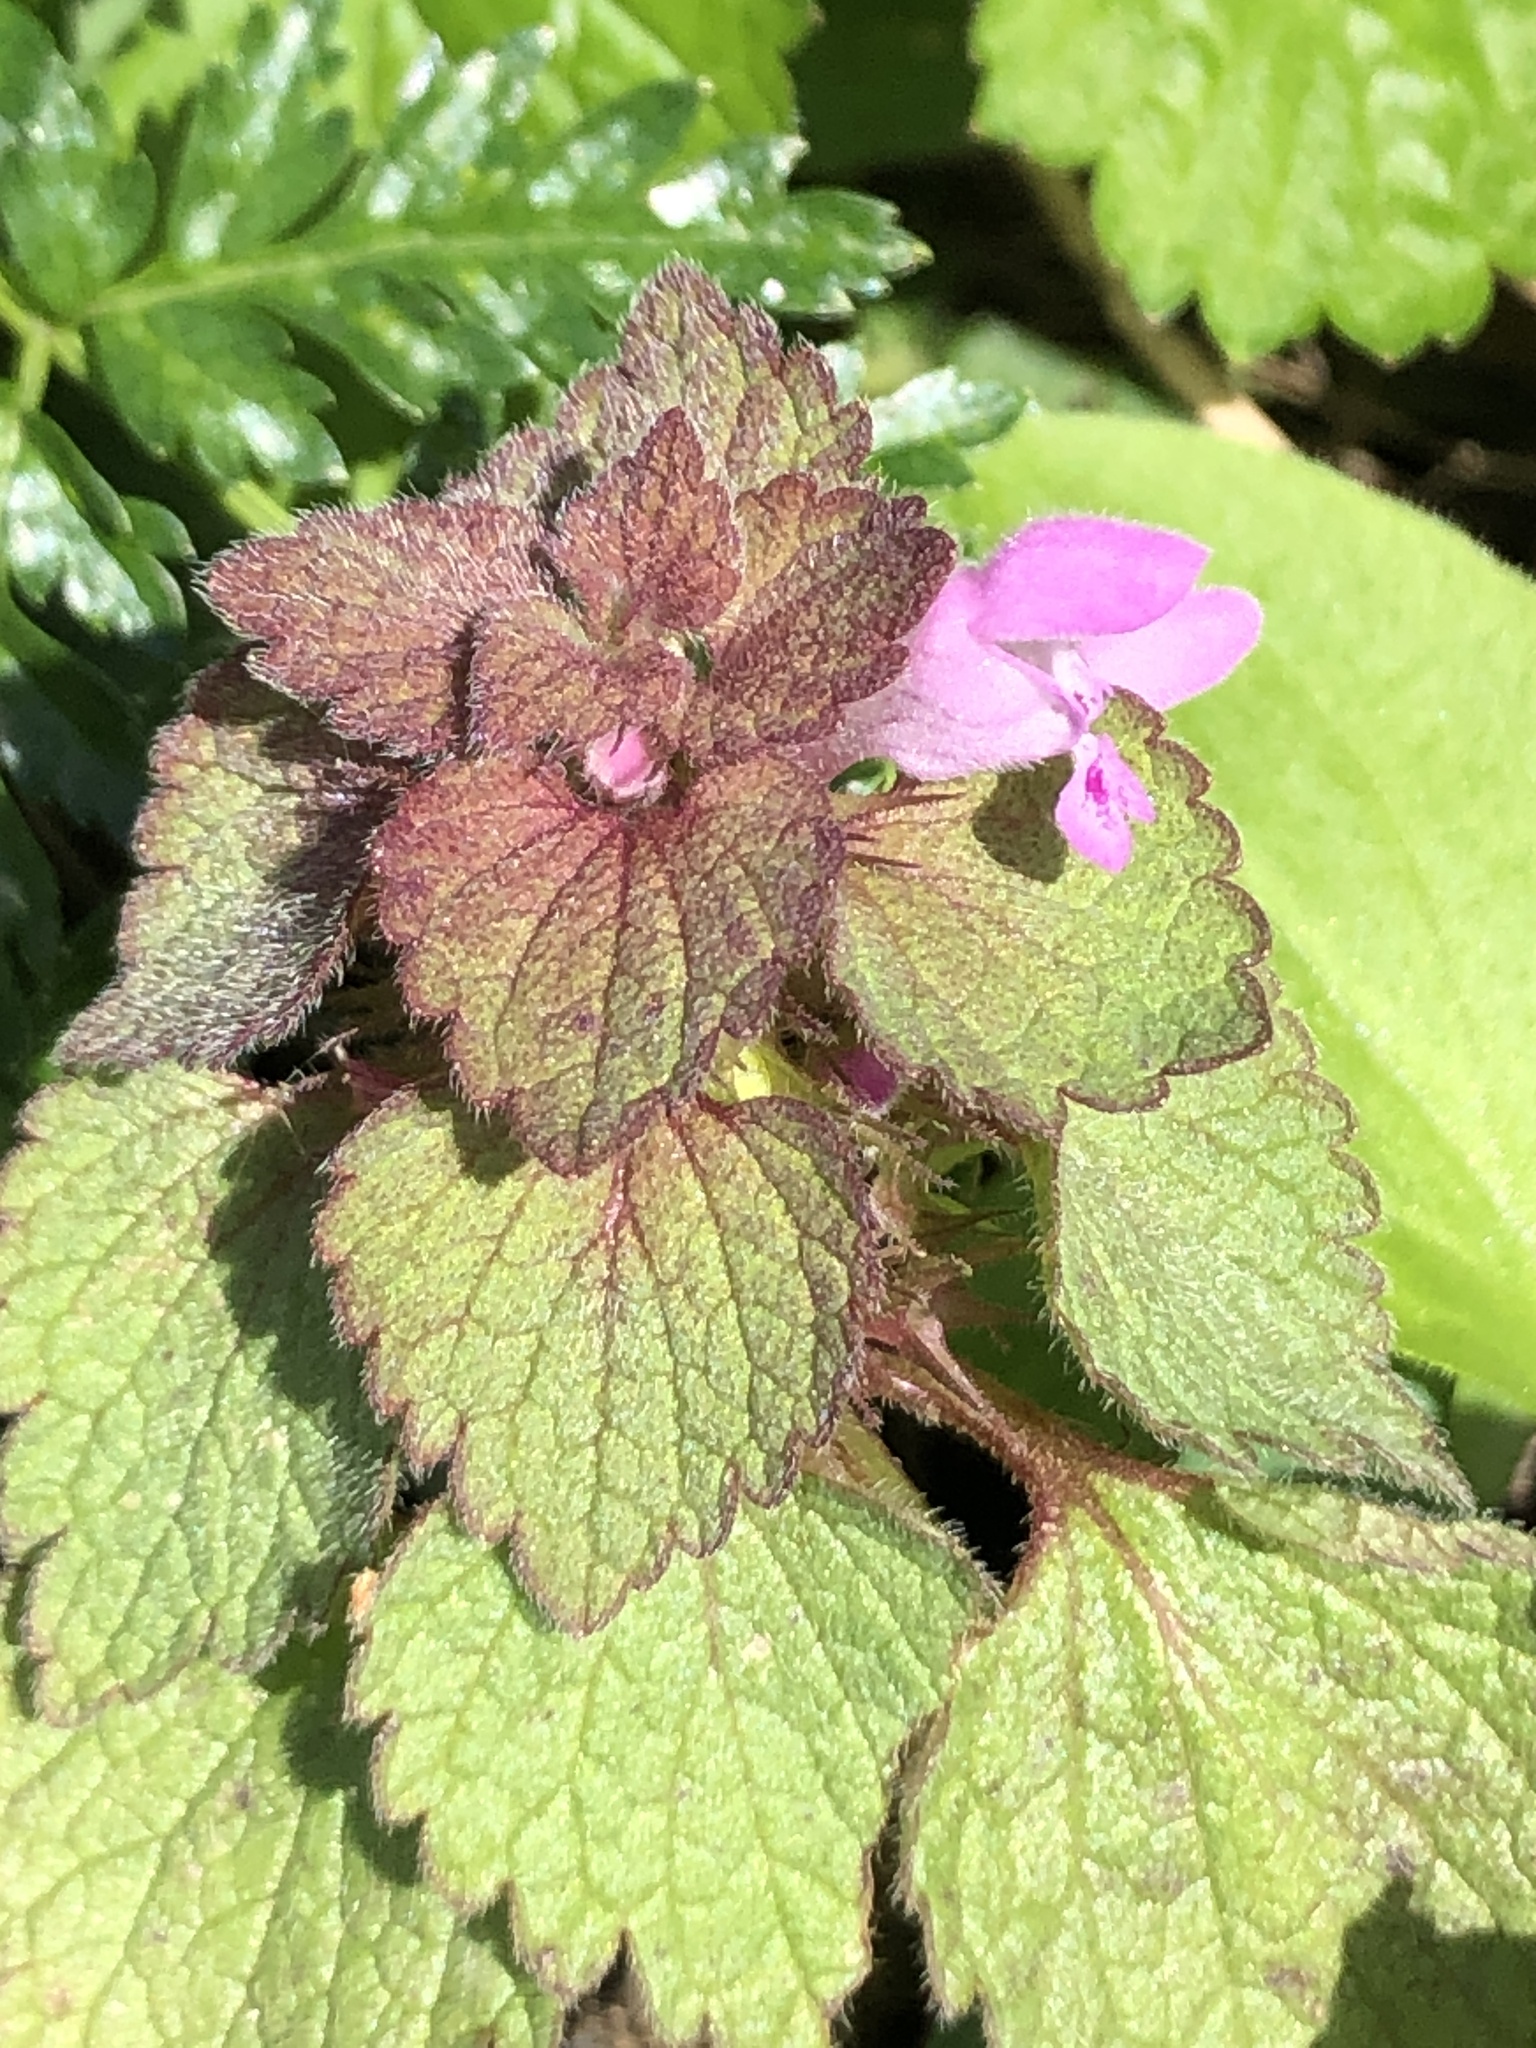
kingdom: Plantae
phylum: Tracheophyta
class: Magnoliopsida
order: Lamiales
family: Lamiaceae
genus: Lamium
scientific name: Lamium purpureum
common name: Red dead-nettle
